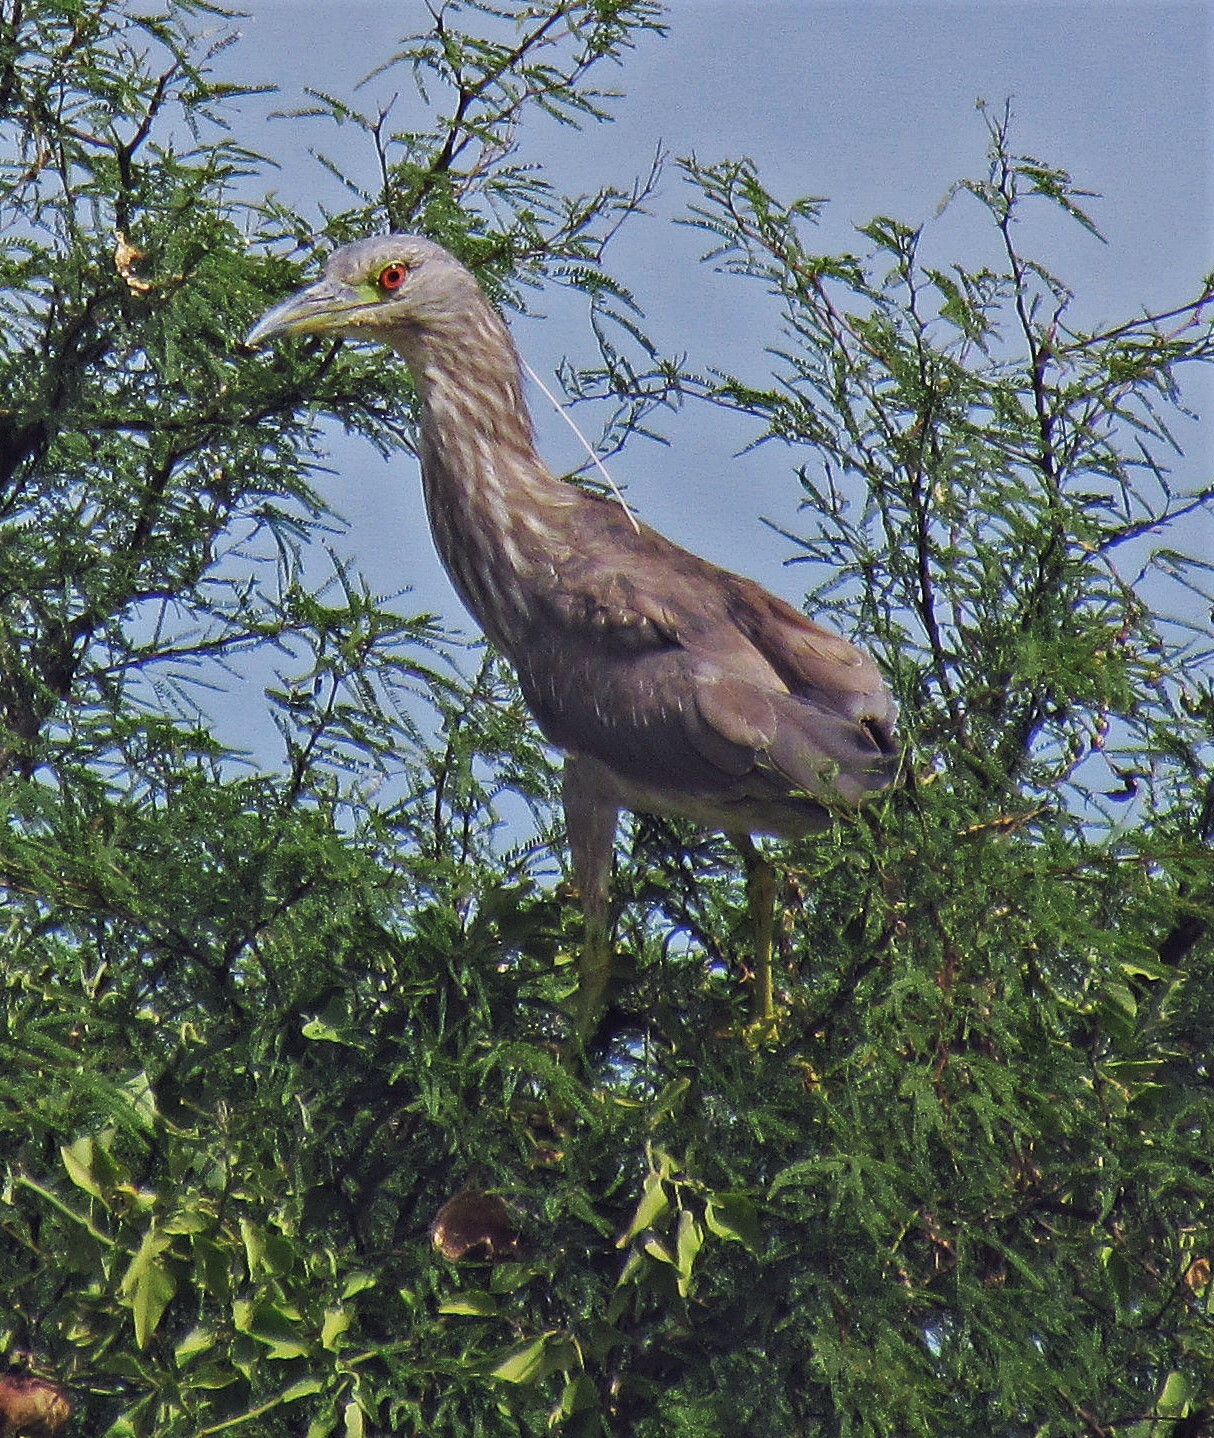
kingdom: Animalia
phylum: Chordata
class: Aves
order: Pelecaniformes
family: Ardeidae
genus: Nycticorax
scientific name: Nycticorax nycticorax
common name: Black-crowned night heron
